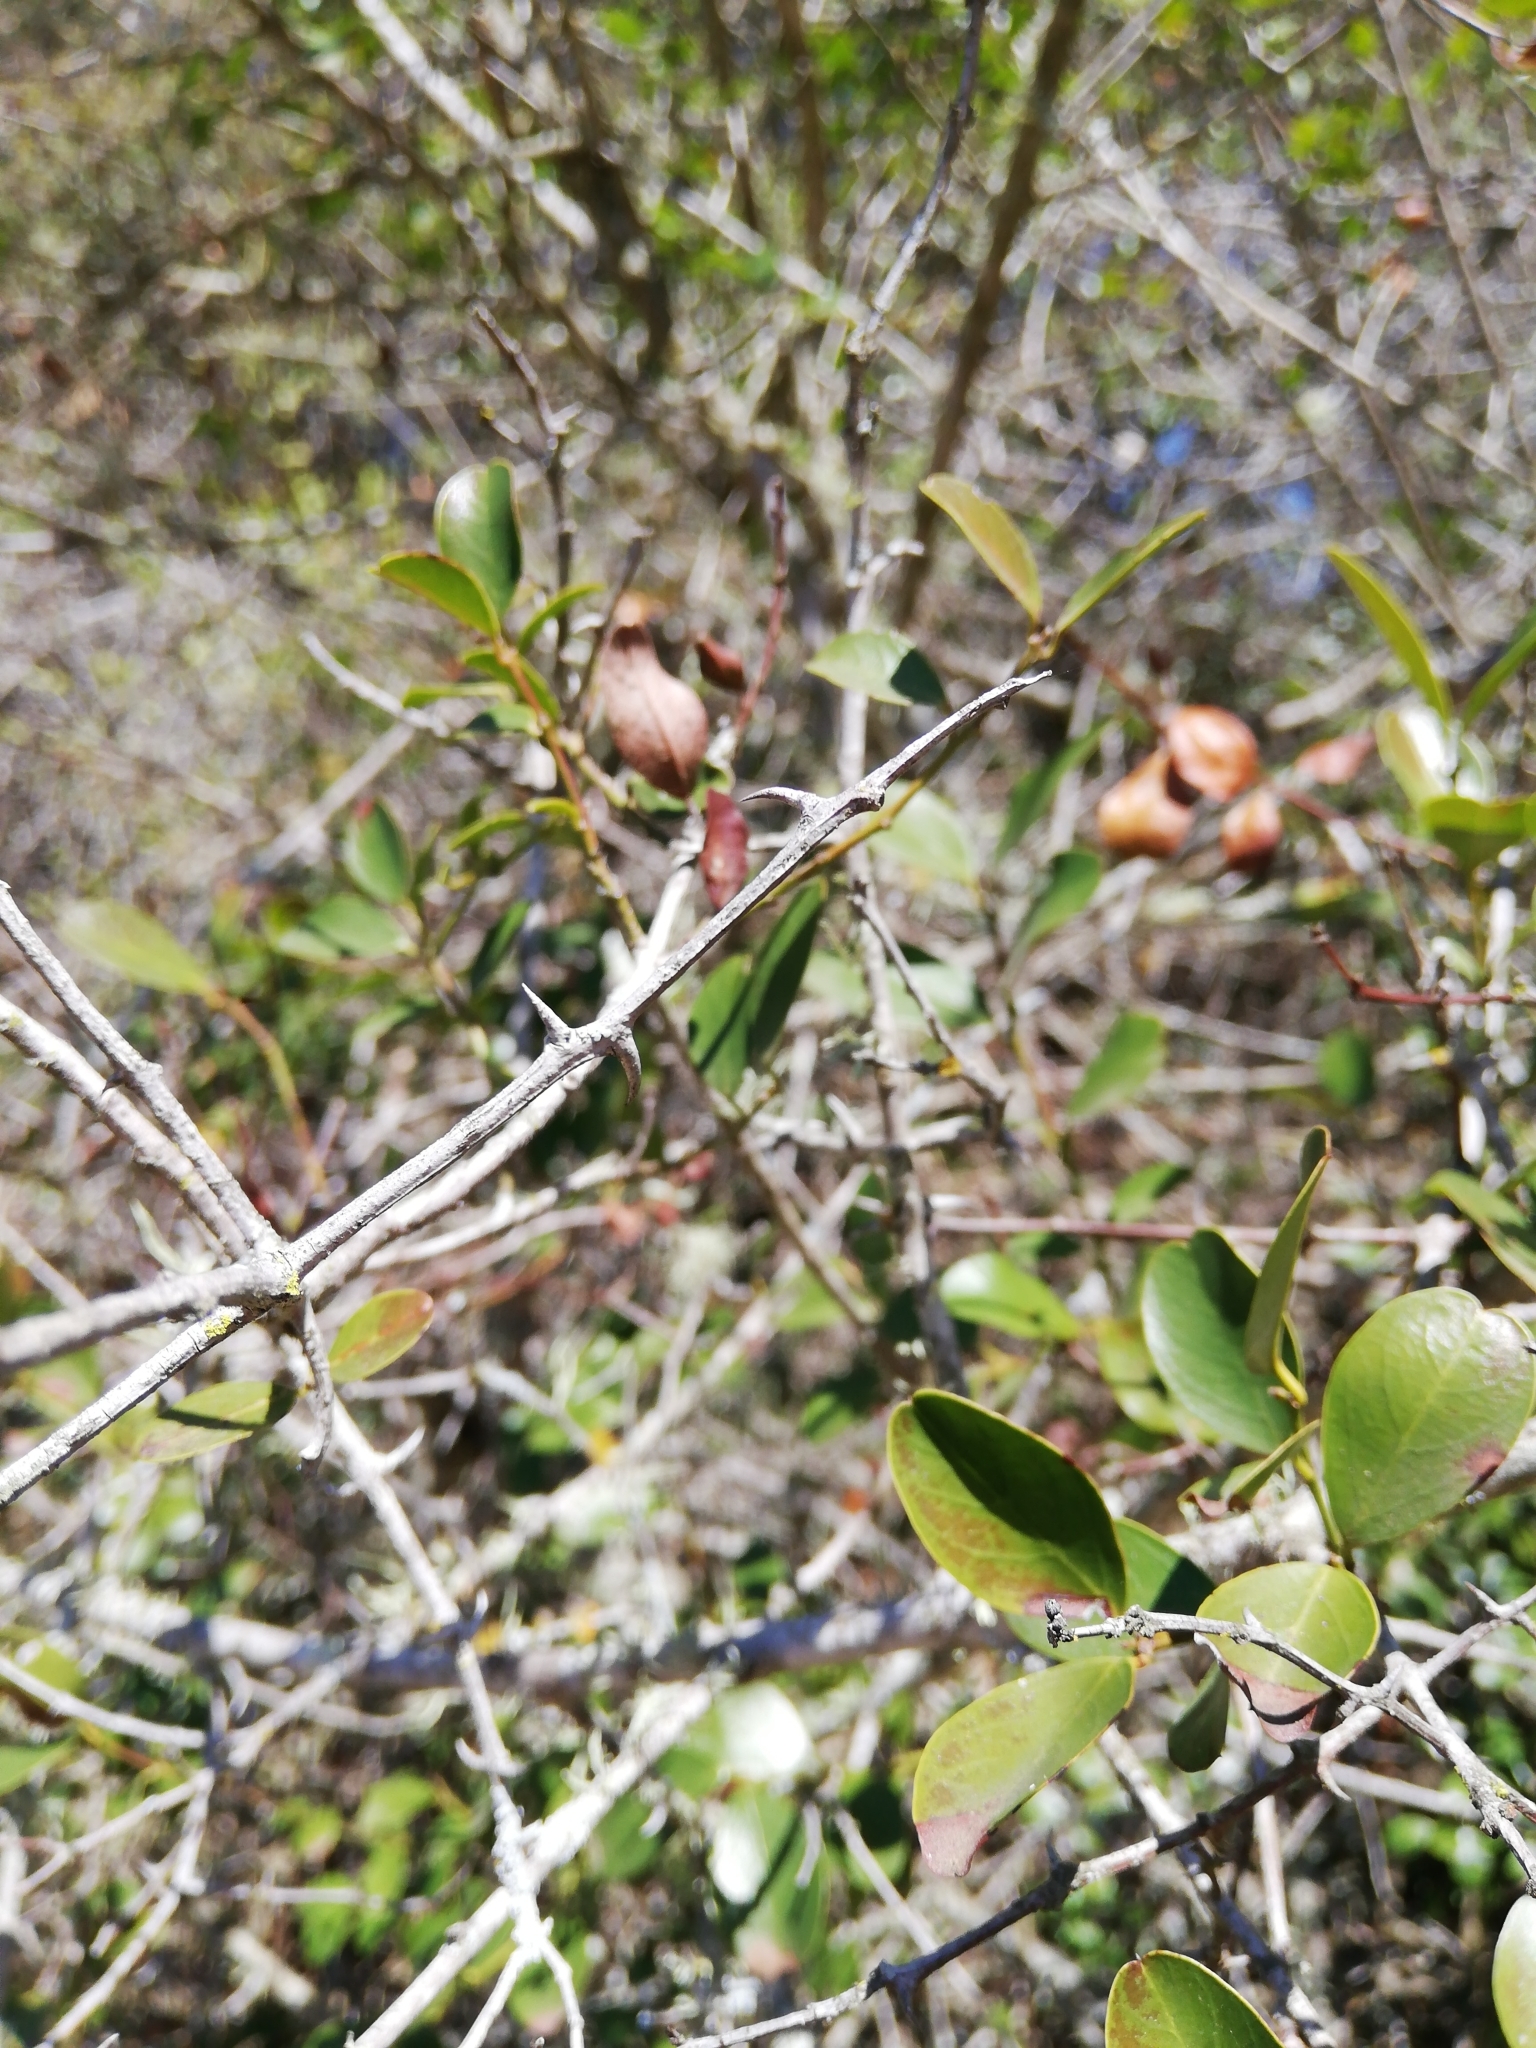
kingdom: Plantae
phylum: Tracheophyta
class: Magnoliopsida
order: Rosales
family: Rhamnaceae
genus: Scutia
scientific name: Scutia myrtina
